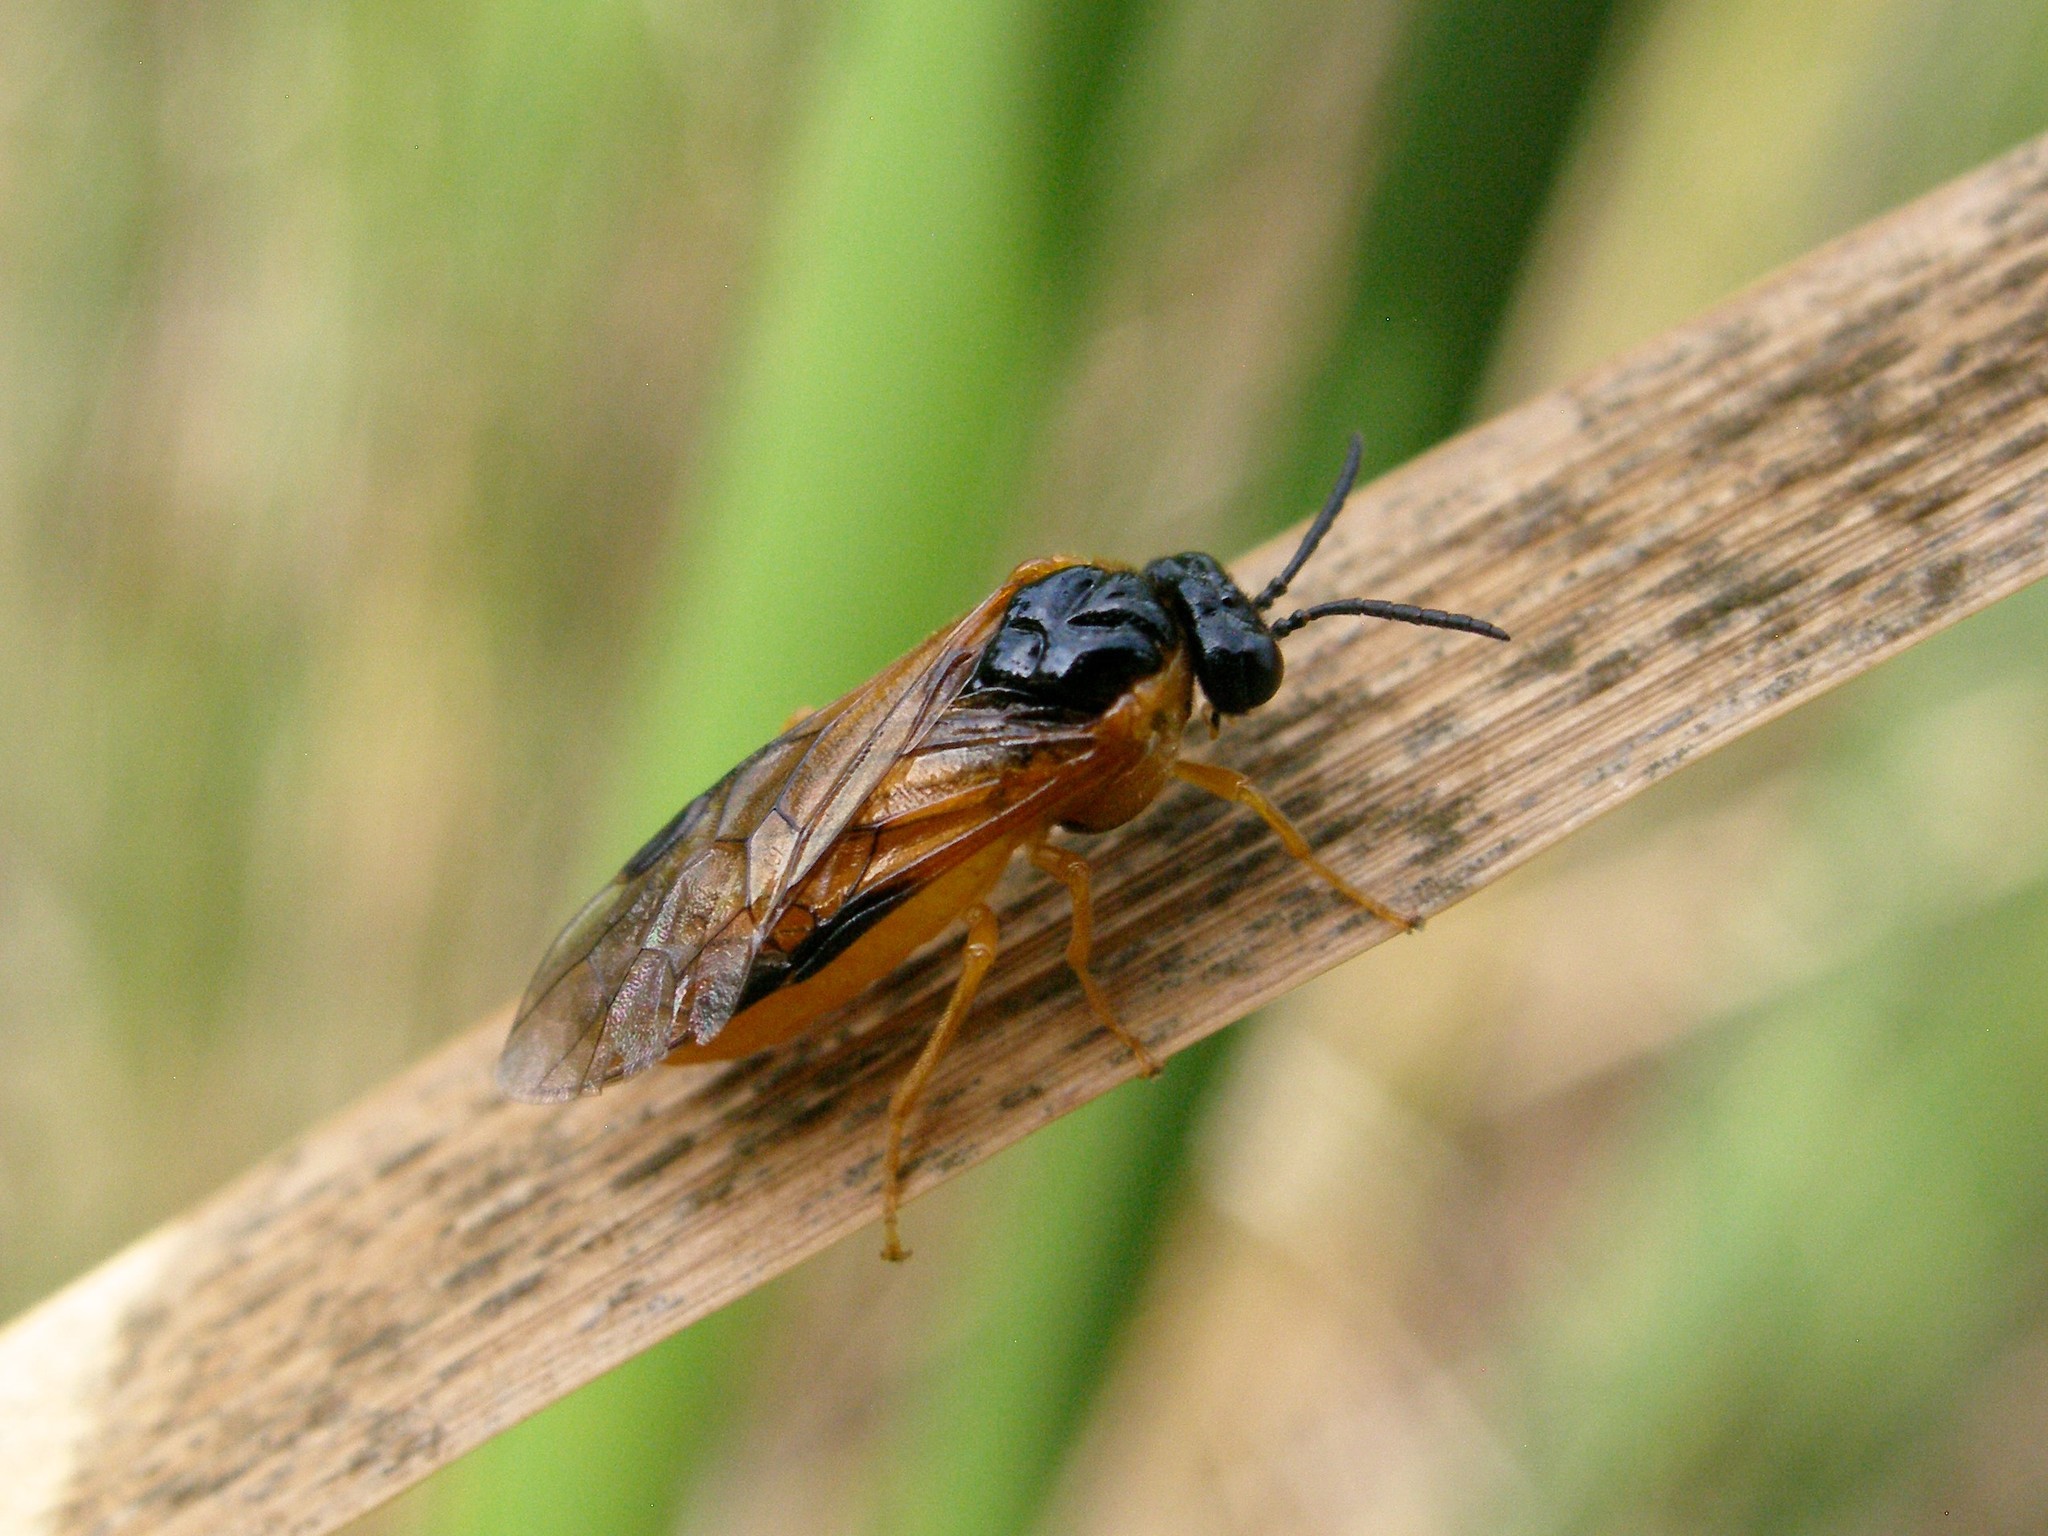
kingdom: Animalia
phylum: Arthropoda
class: Insecta
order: Hymenoptera
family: Tenthredinidae
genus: Selandria
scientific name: Selandria serva
